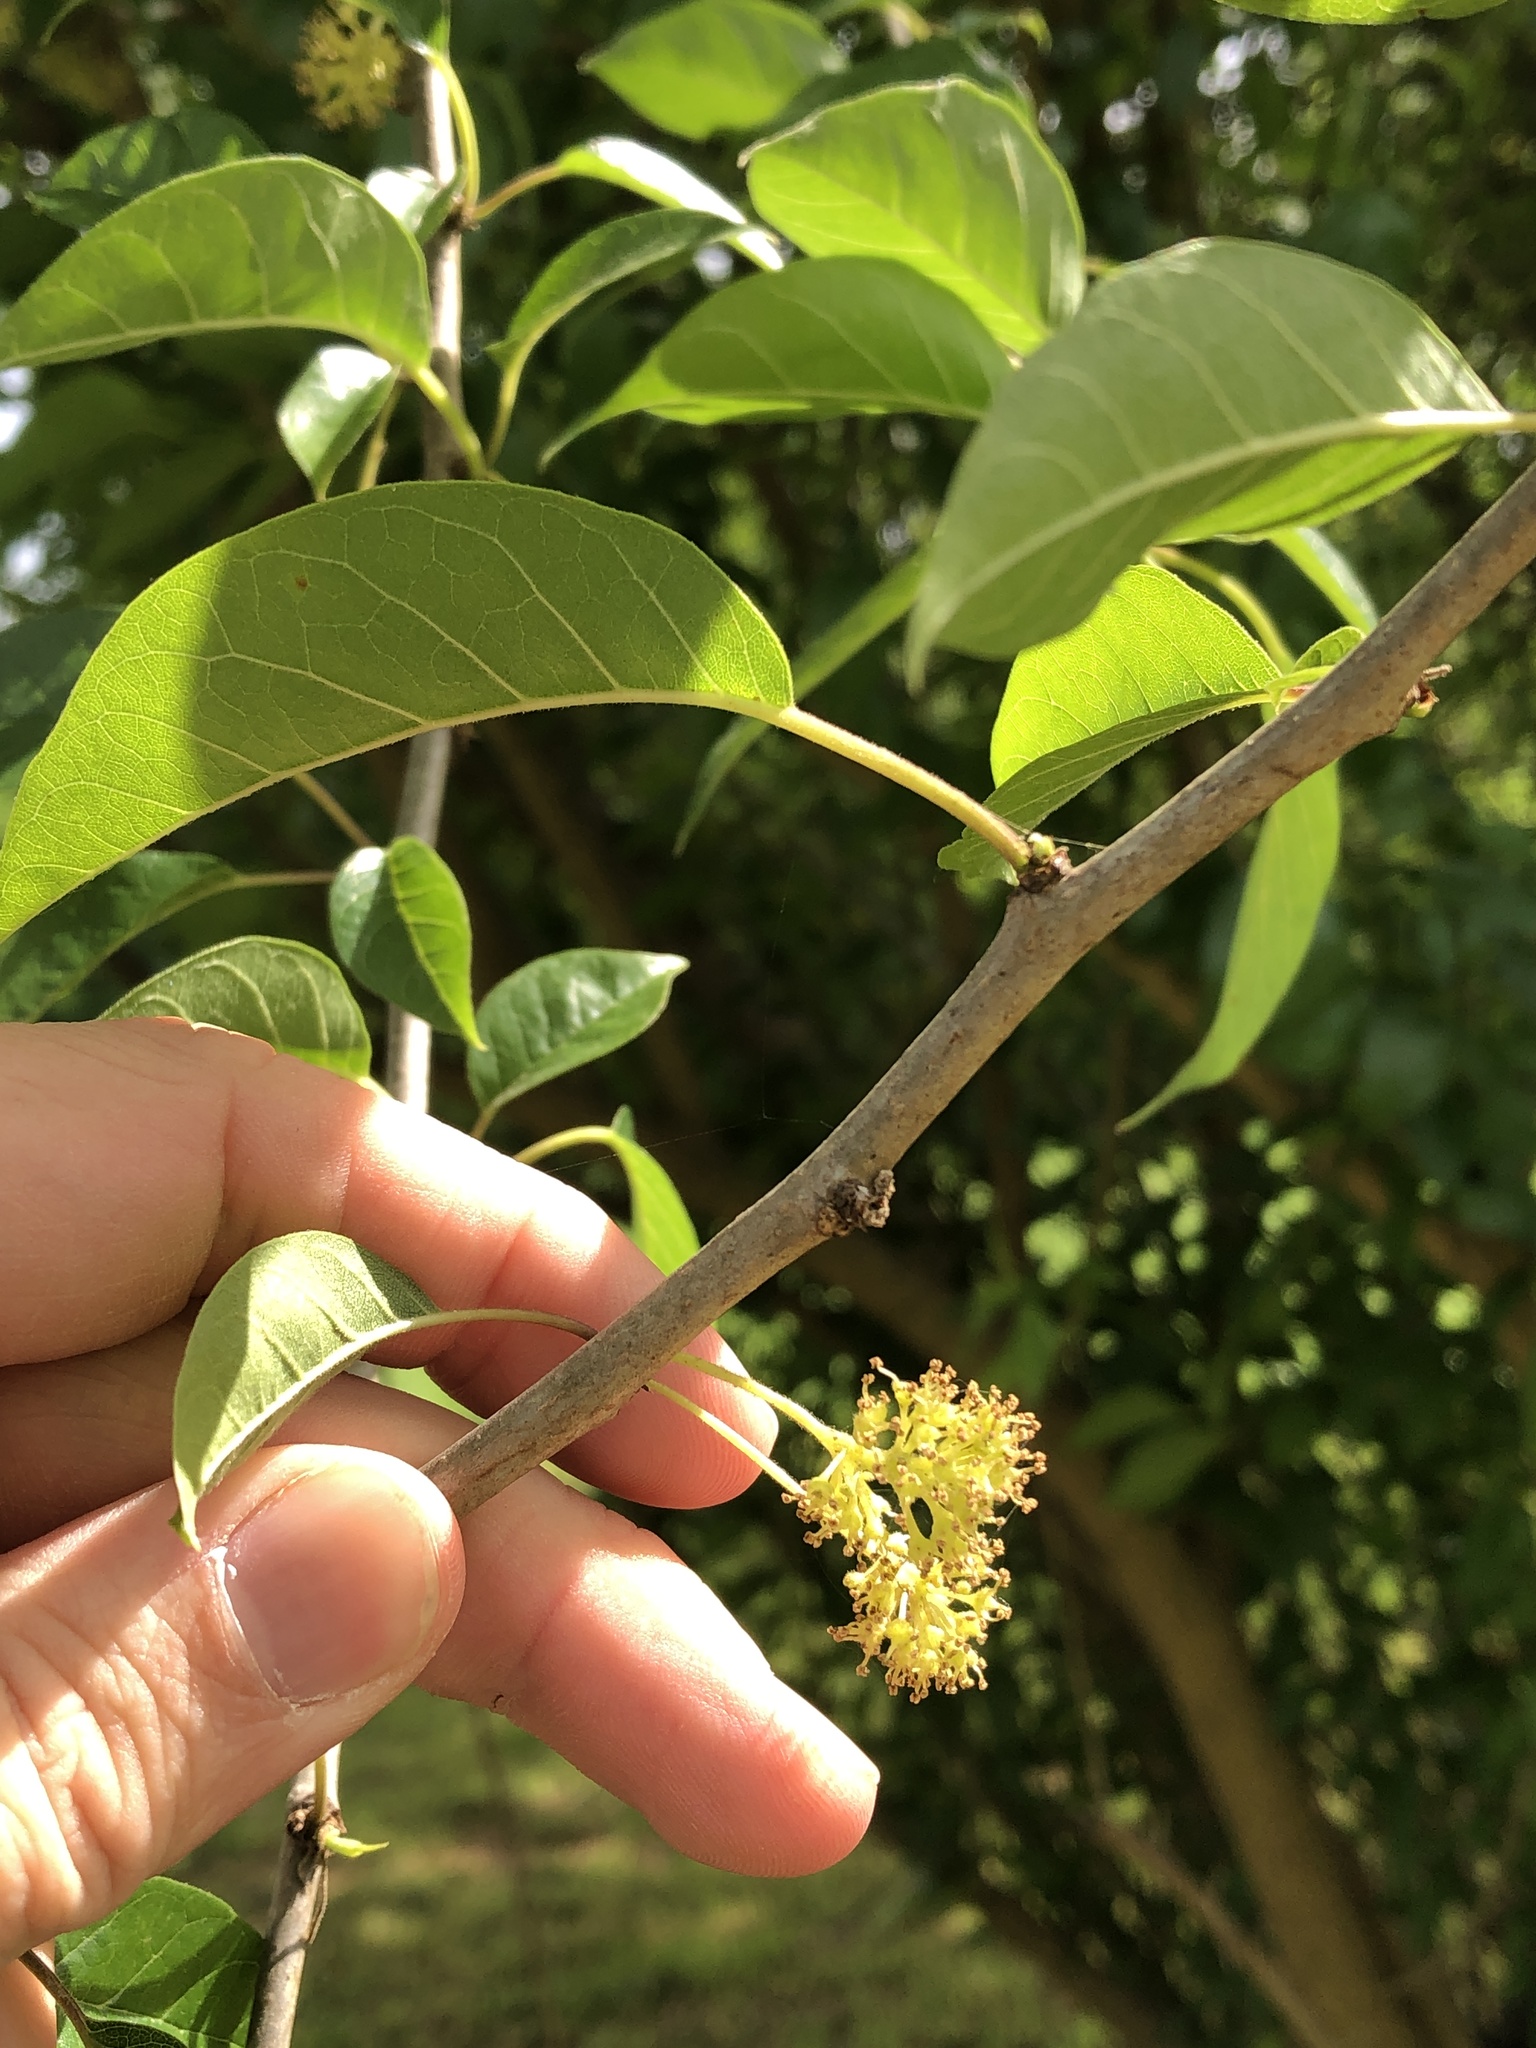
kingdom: Plantae
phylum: Tracheophyta
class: Magnoliopsida
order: Rosales
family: Moraceae
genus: Maclura
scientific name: Maclura pomifera
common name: Osage-orange
